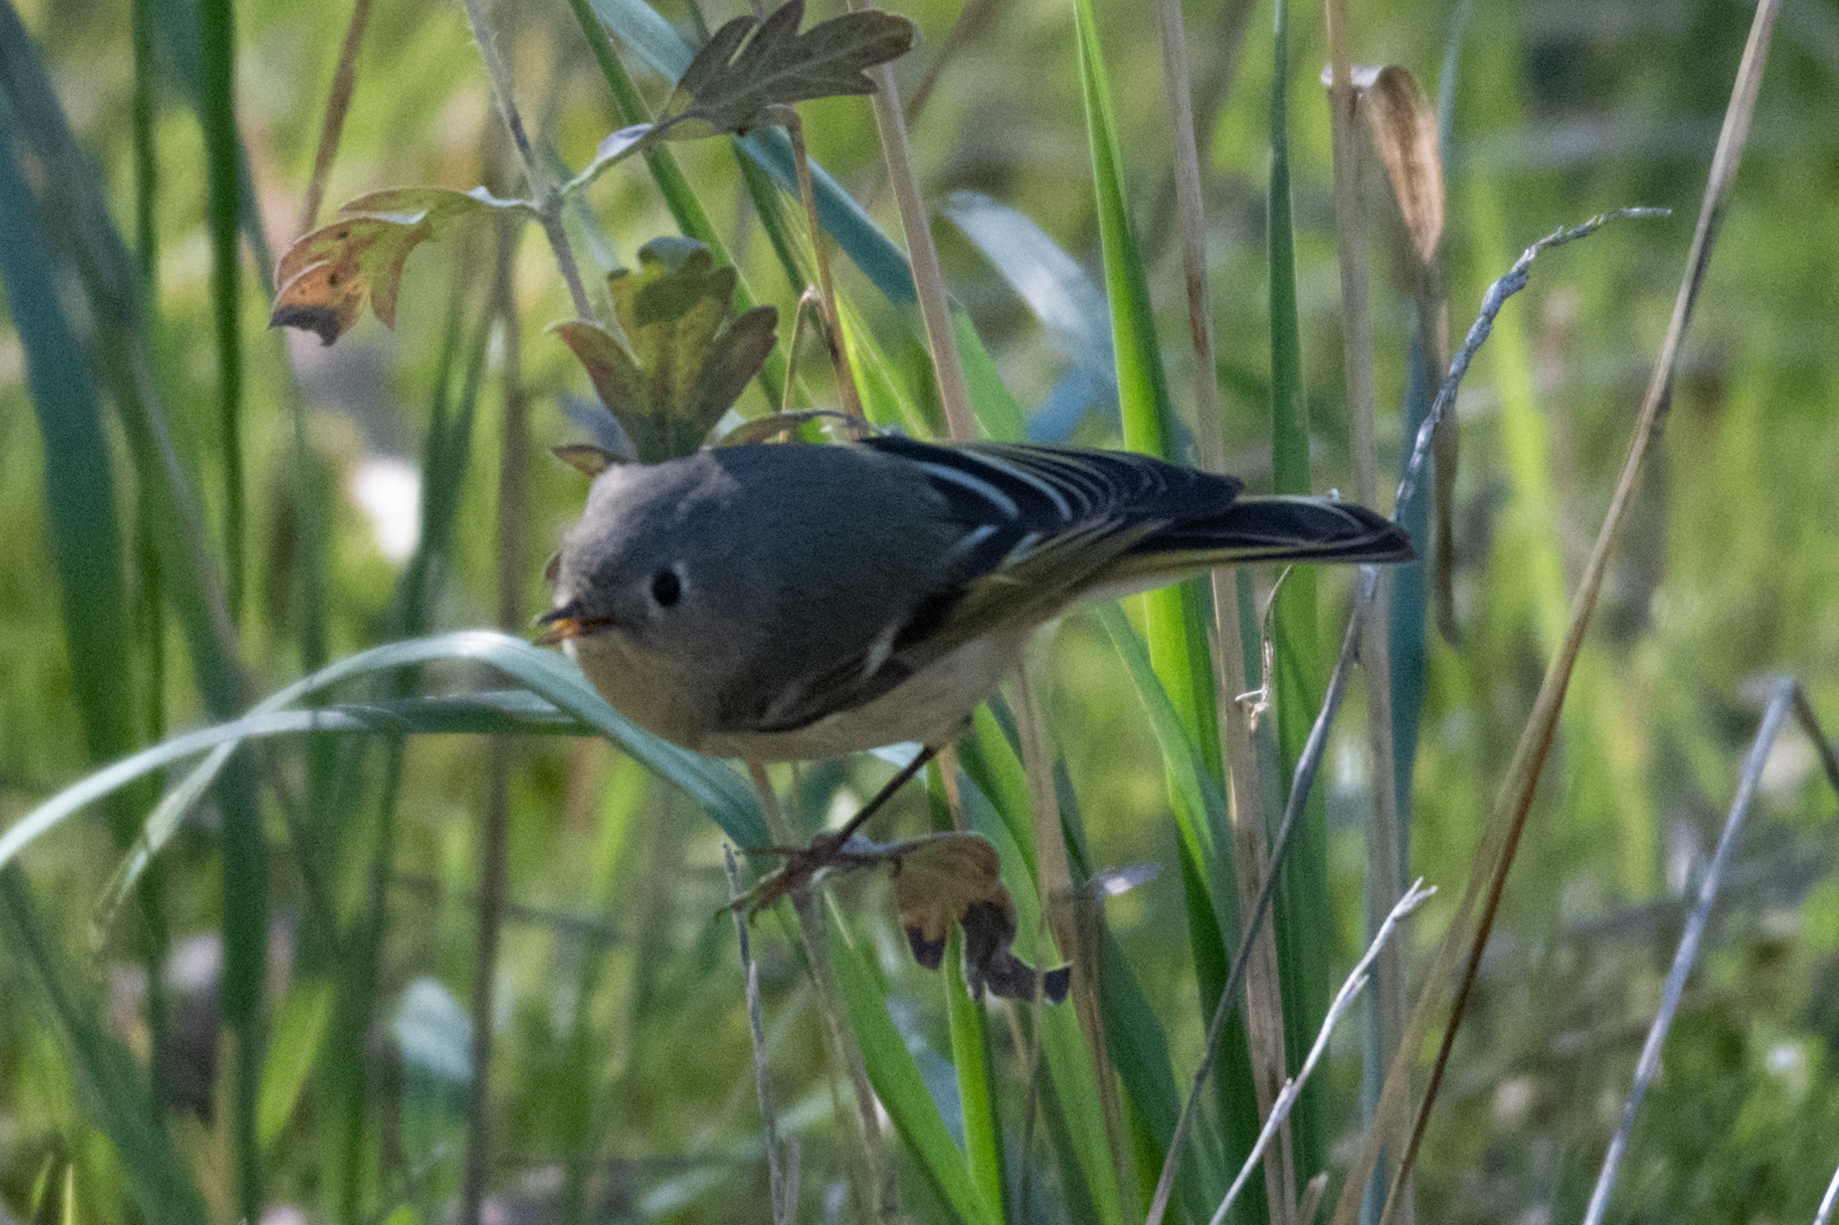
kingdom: Animalia
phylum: Chordata
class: Aves
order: Passeriformes
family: Regulidae
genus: Regulus
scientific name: Regulus calendula
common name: Ruby-crowned kinglet
